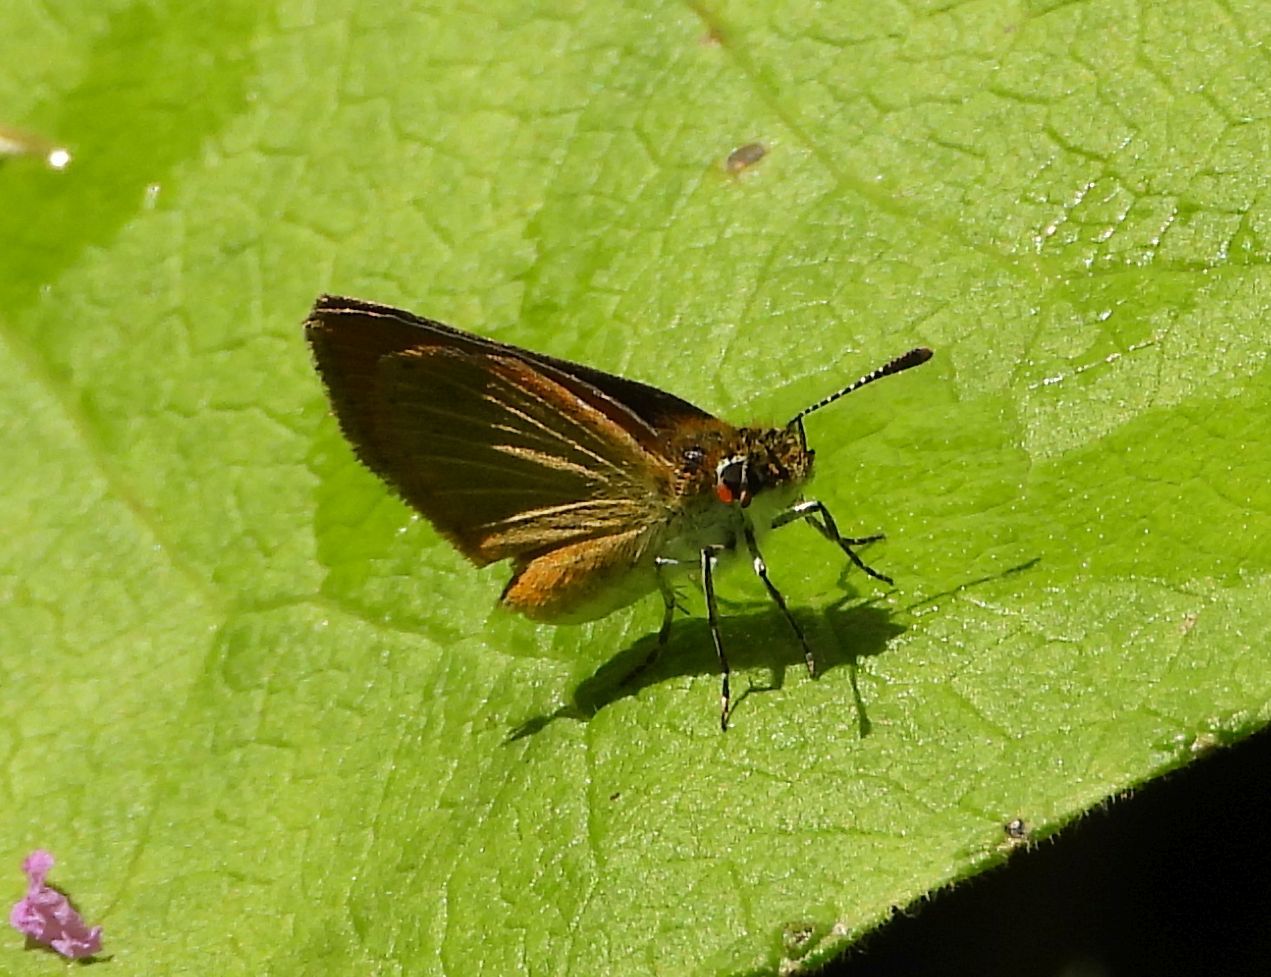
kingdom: Animalia
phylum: Arthropoda
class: Insecta
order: Lepidoptera
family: Hesperiidae
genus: Ancyloxypha
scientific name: Ancyloxypha numitor
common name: Least skipper
